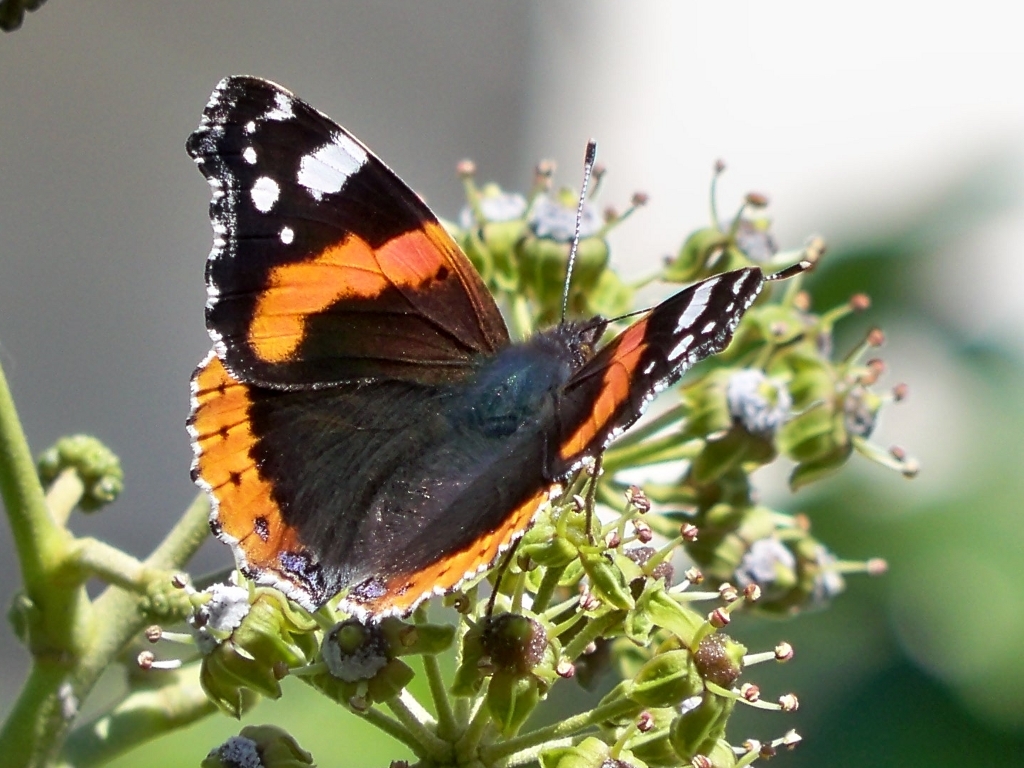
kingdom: Animalia
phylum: Arthropoda
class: Insecta
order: Lepidoptera
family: Nymphalidae
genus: Vanessa
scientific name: Vanessa atalanta
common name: Red admiral
